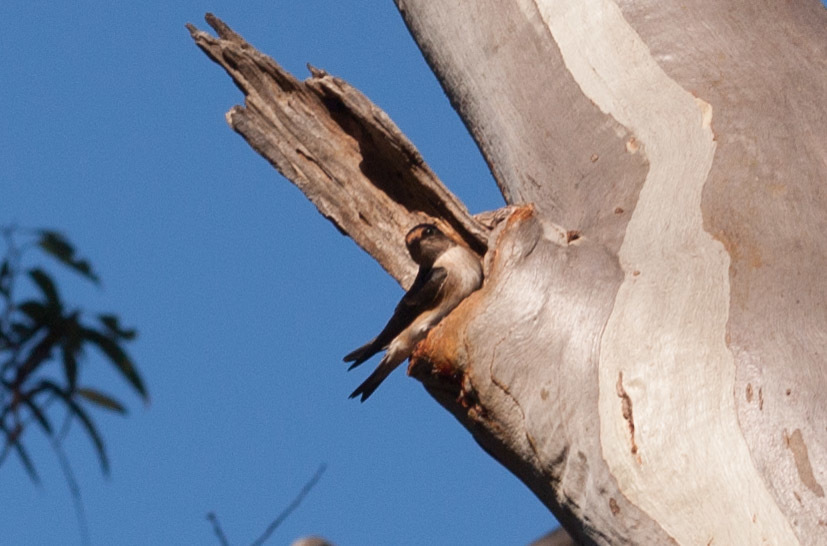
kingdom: Animalia
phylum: Chordata
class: Aves
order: Passeriformes
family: Hirundinidae
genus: Petrochelidon
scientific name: Petrochelidon nigricans
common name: Tree martin
